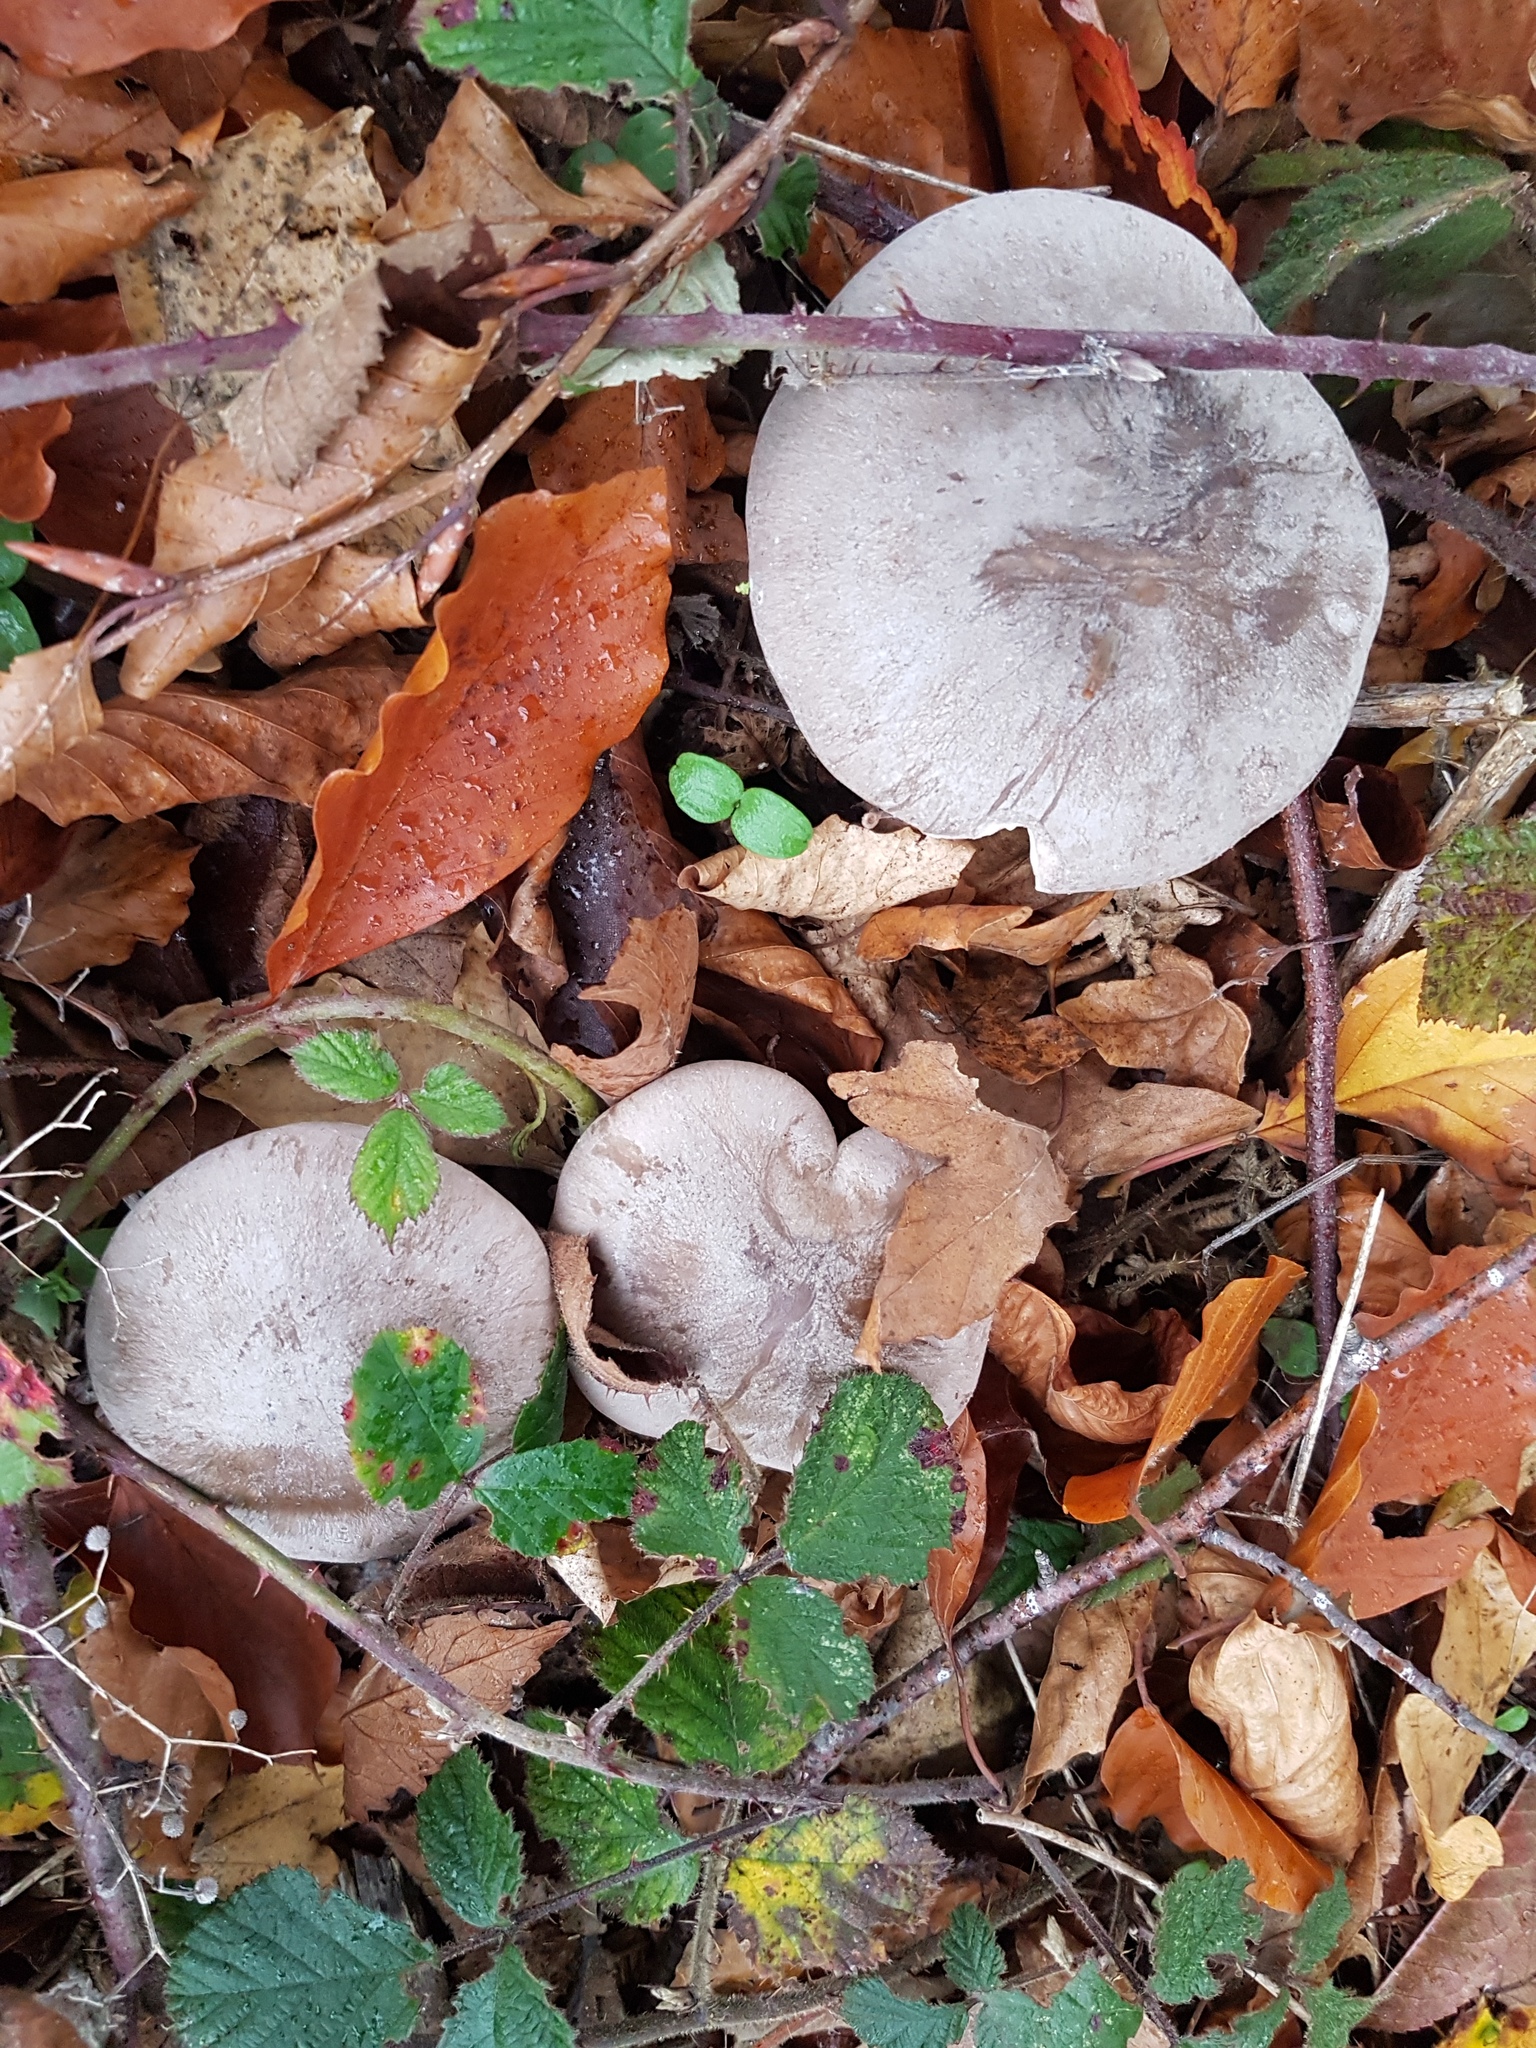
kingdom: Fungi
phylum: Basidiomycota
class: Agaricomycetes
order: Agaricales
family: Tricholomataceae
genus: Clitocybe
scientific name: Clitocybe nebularis
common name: Clouded agaric
